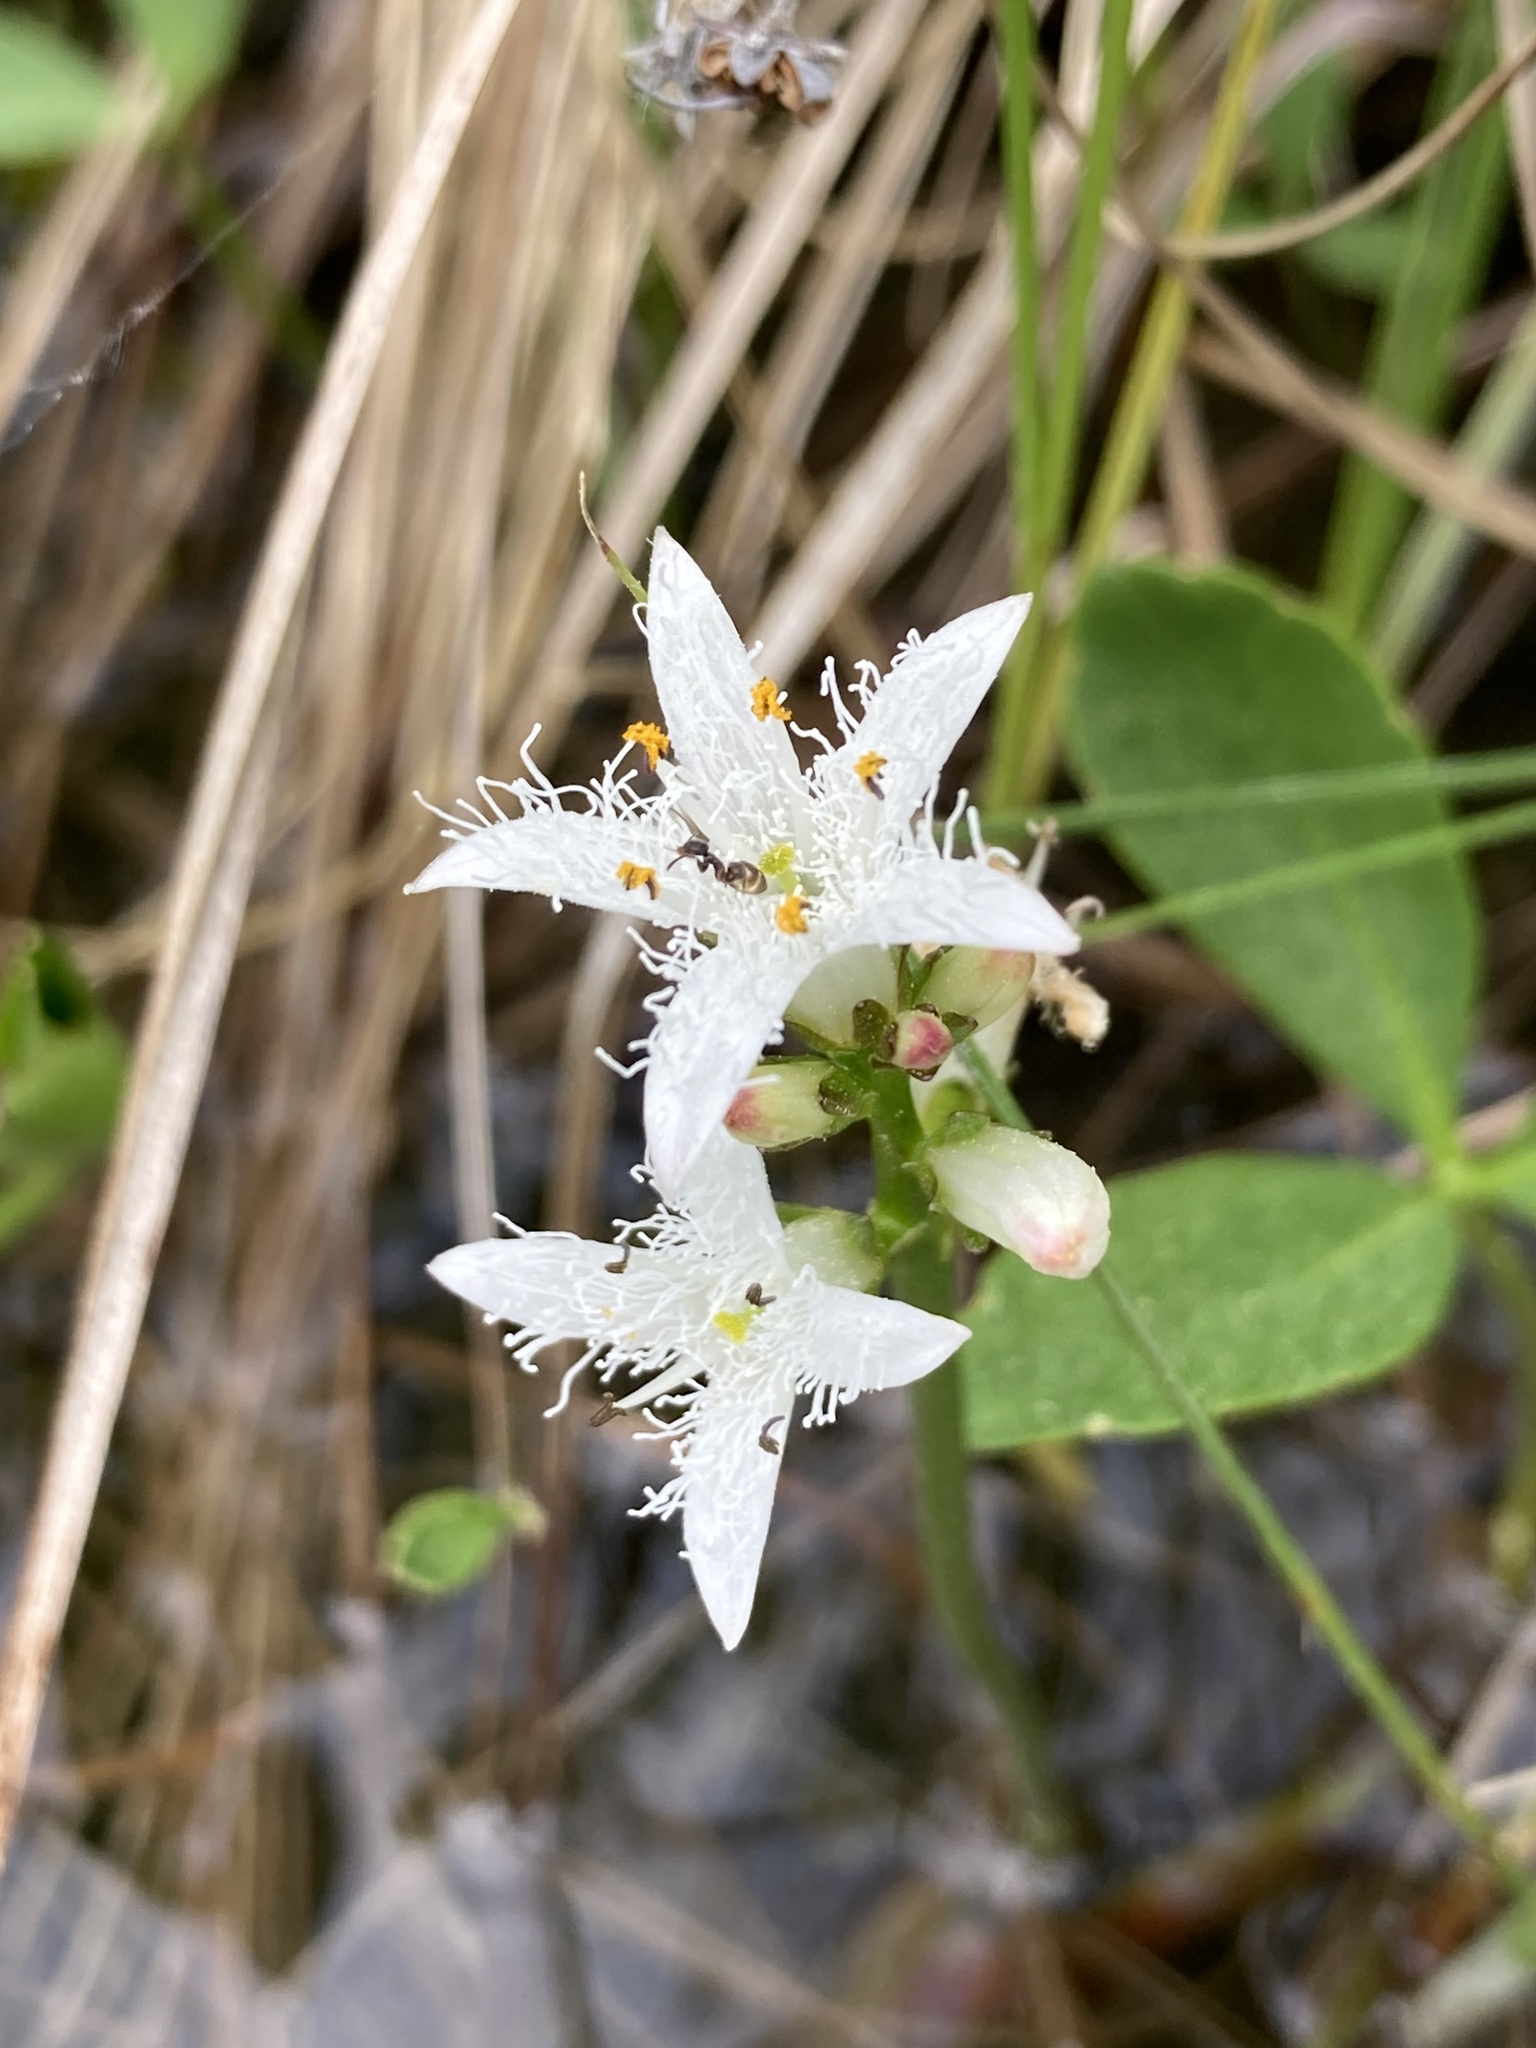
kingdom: Animalia
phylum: Arthropoda
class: Insecta
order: Hymenoptera
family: Formicidae
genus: Tapinoma
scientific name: Tapinoma sessile
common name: Odorous house ant
